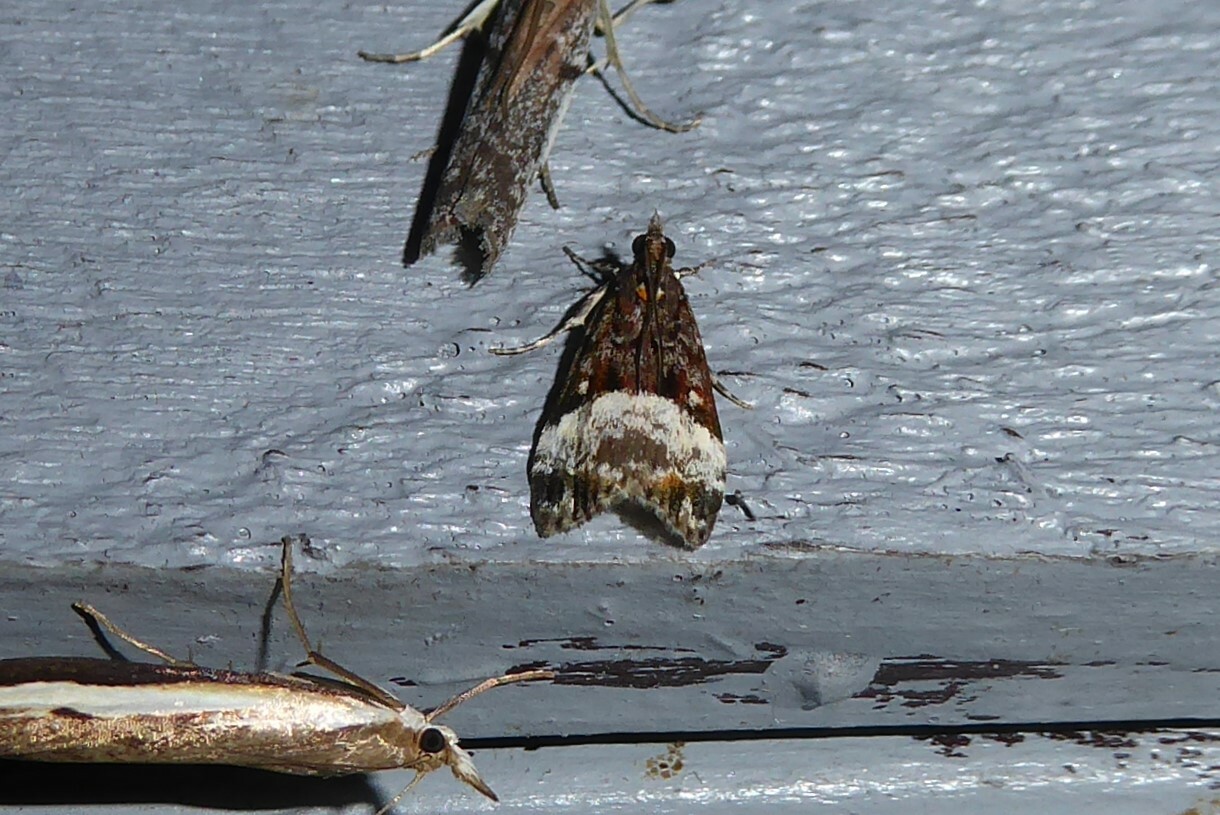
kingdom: Animalia
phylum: Arthropoda
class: Insecta
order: Lepidoptera
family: Crambidae
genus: Scoparia
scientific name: Scoparia minusculalis
